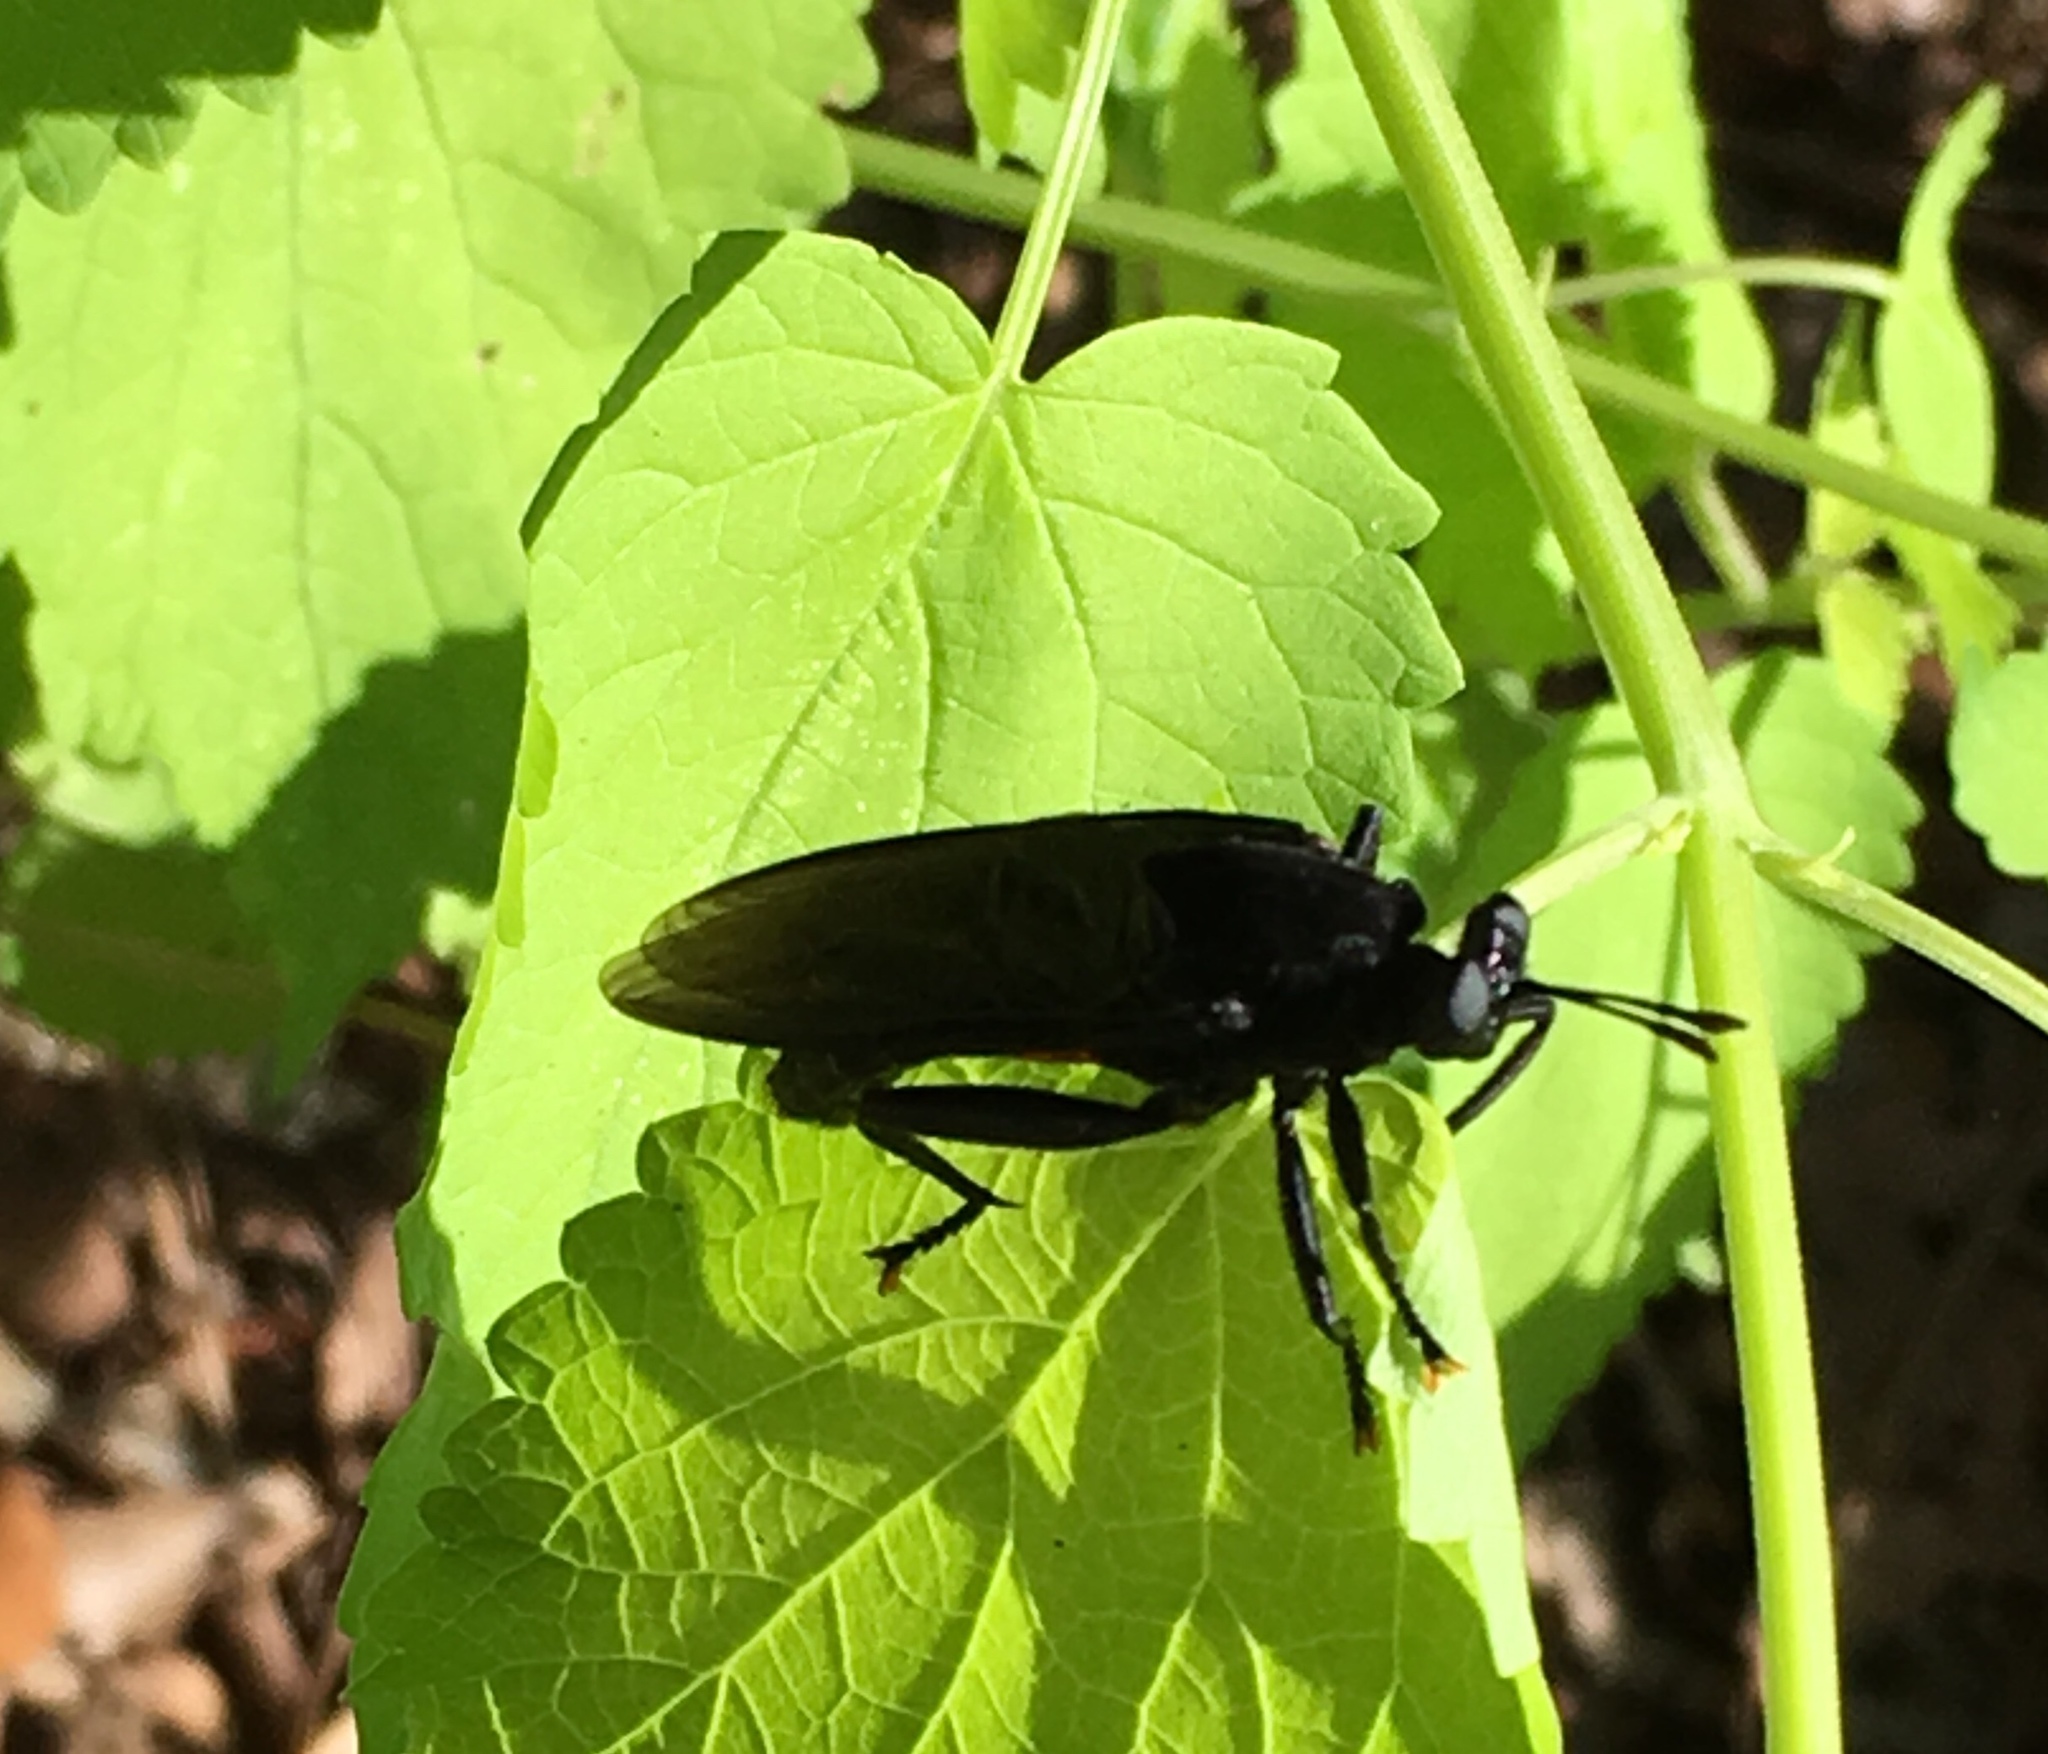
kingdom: Animalia
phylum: Arthropoda
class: Insecta
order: Diptera
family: Mydidae
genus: Mydas
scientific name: Mydas clavatus
